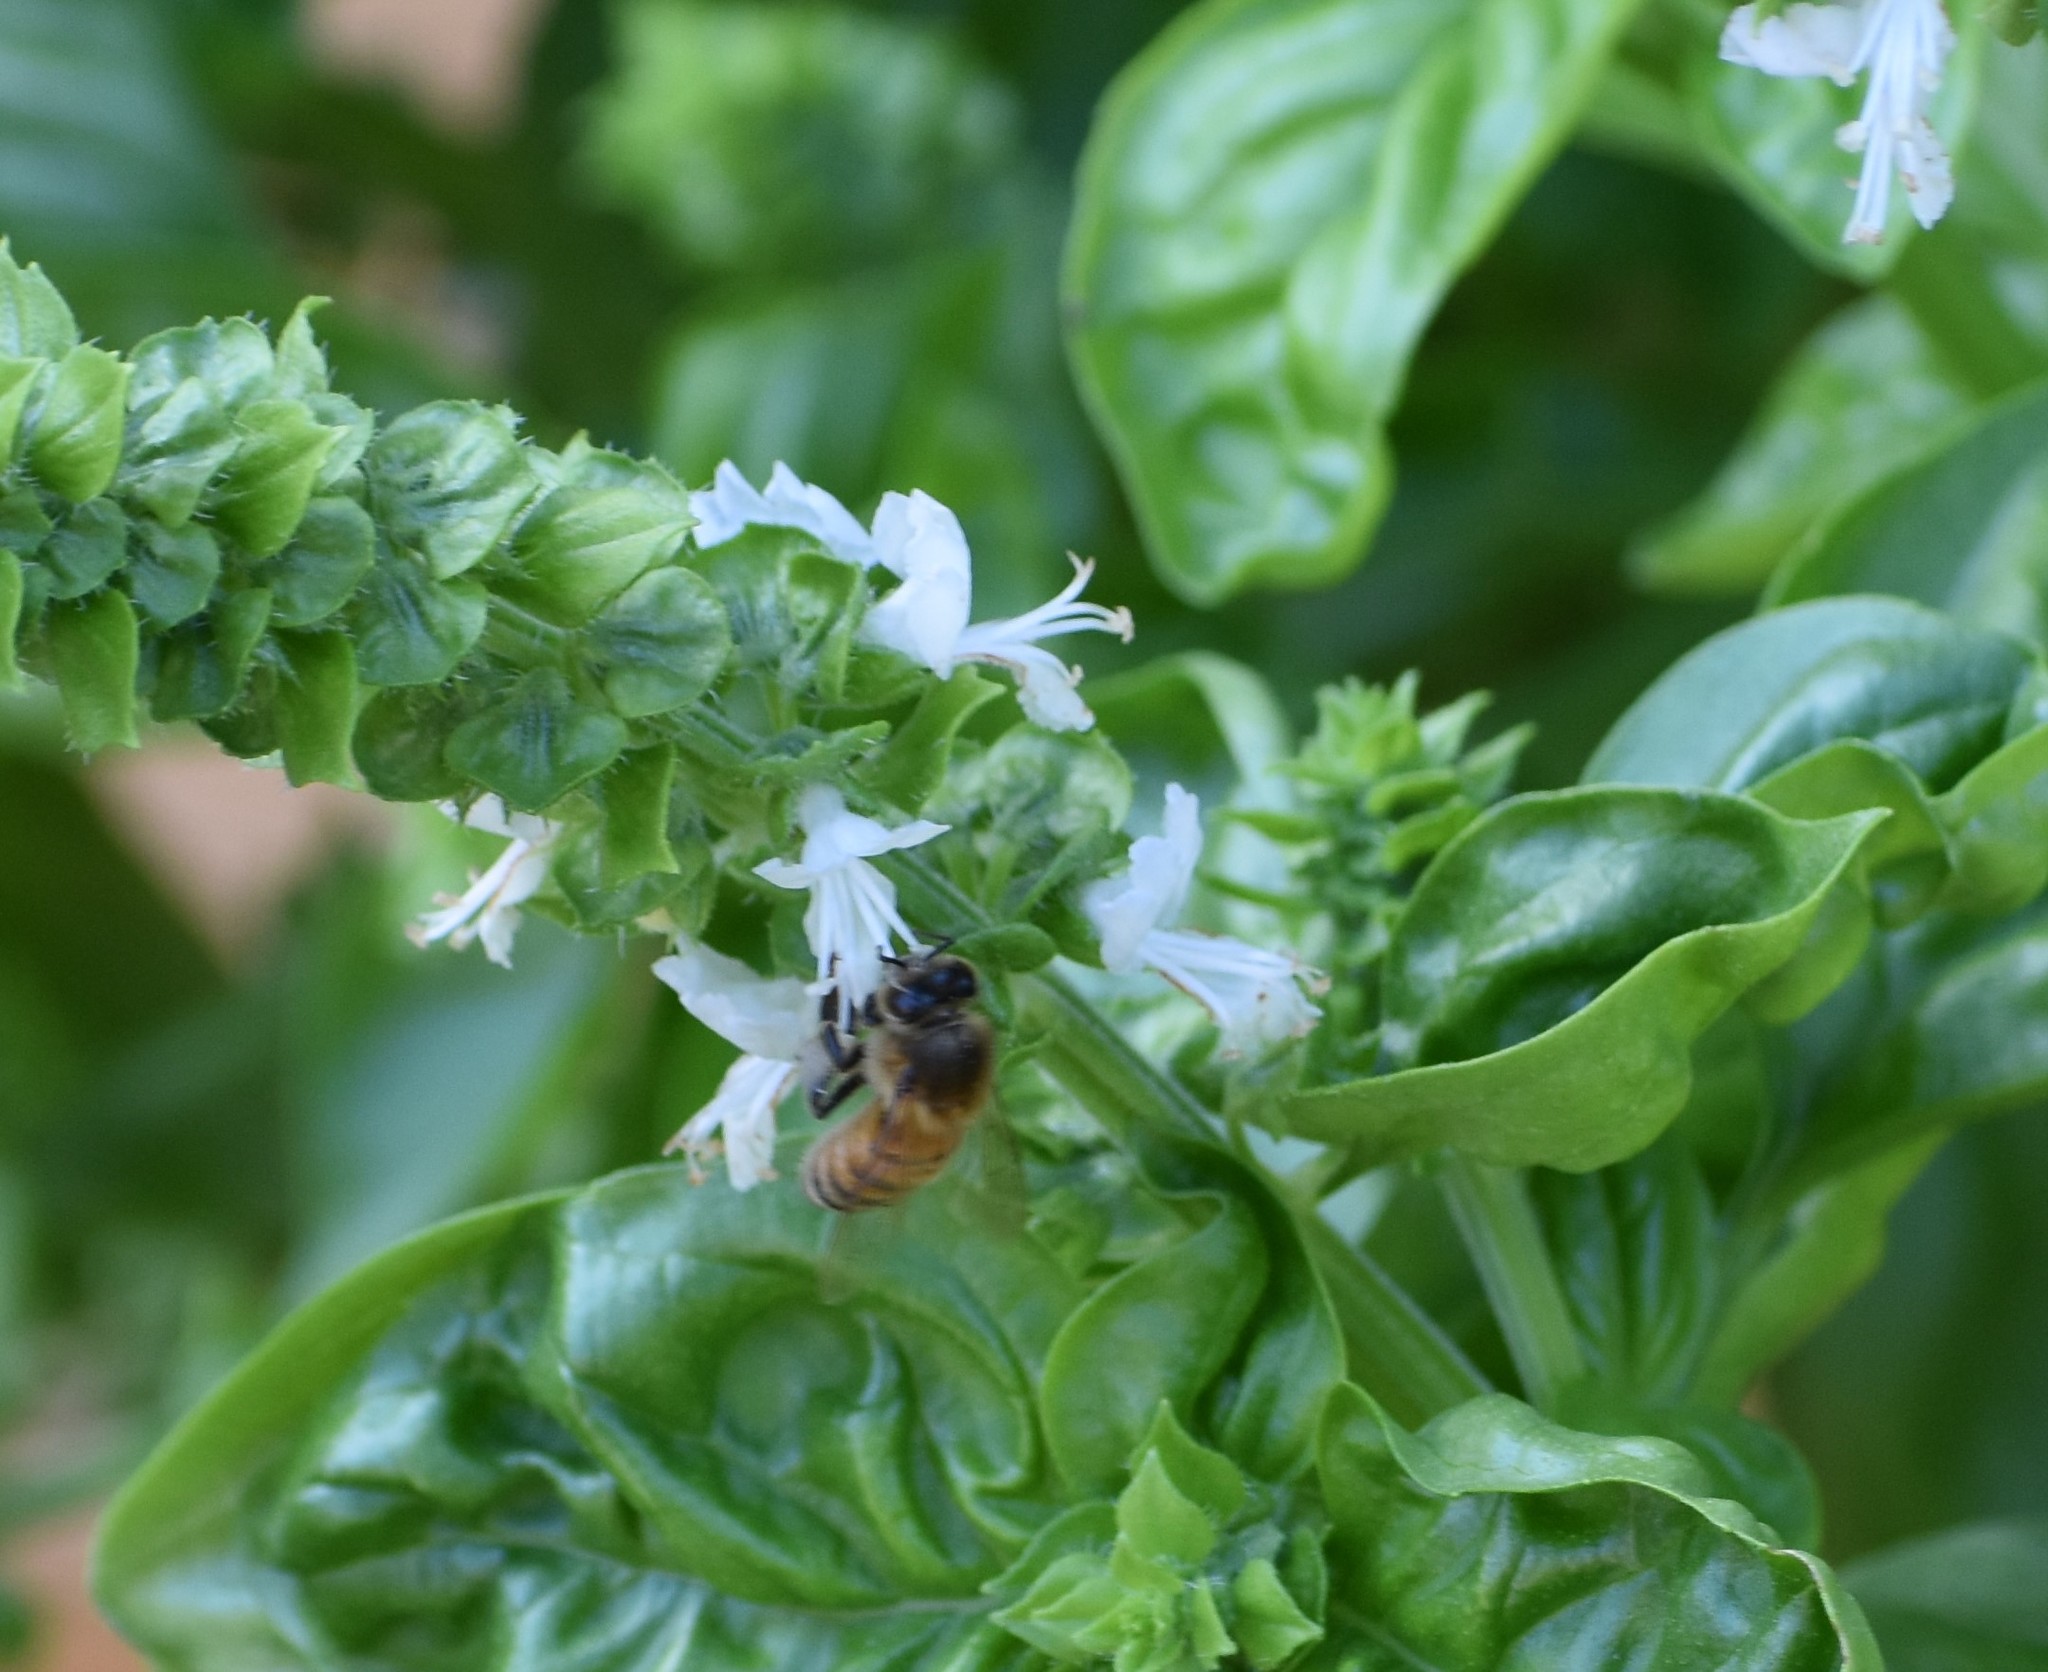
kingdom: Animalia
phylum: Arthropoda
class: Insecta
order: Hymenoptera
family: Apidae
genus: Apis
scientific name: Apis mellifera
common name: Honey bee
